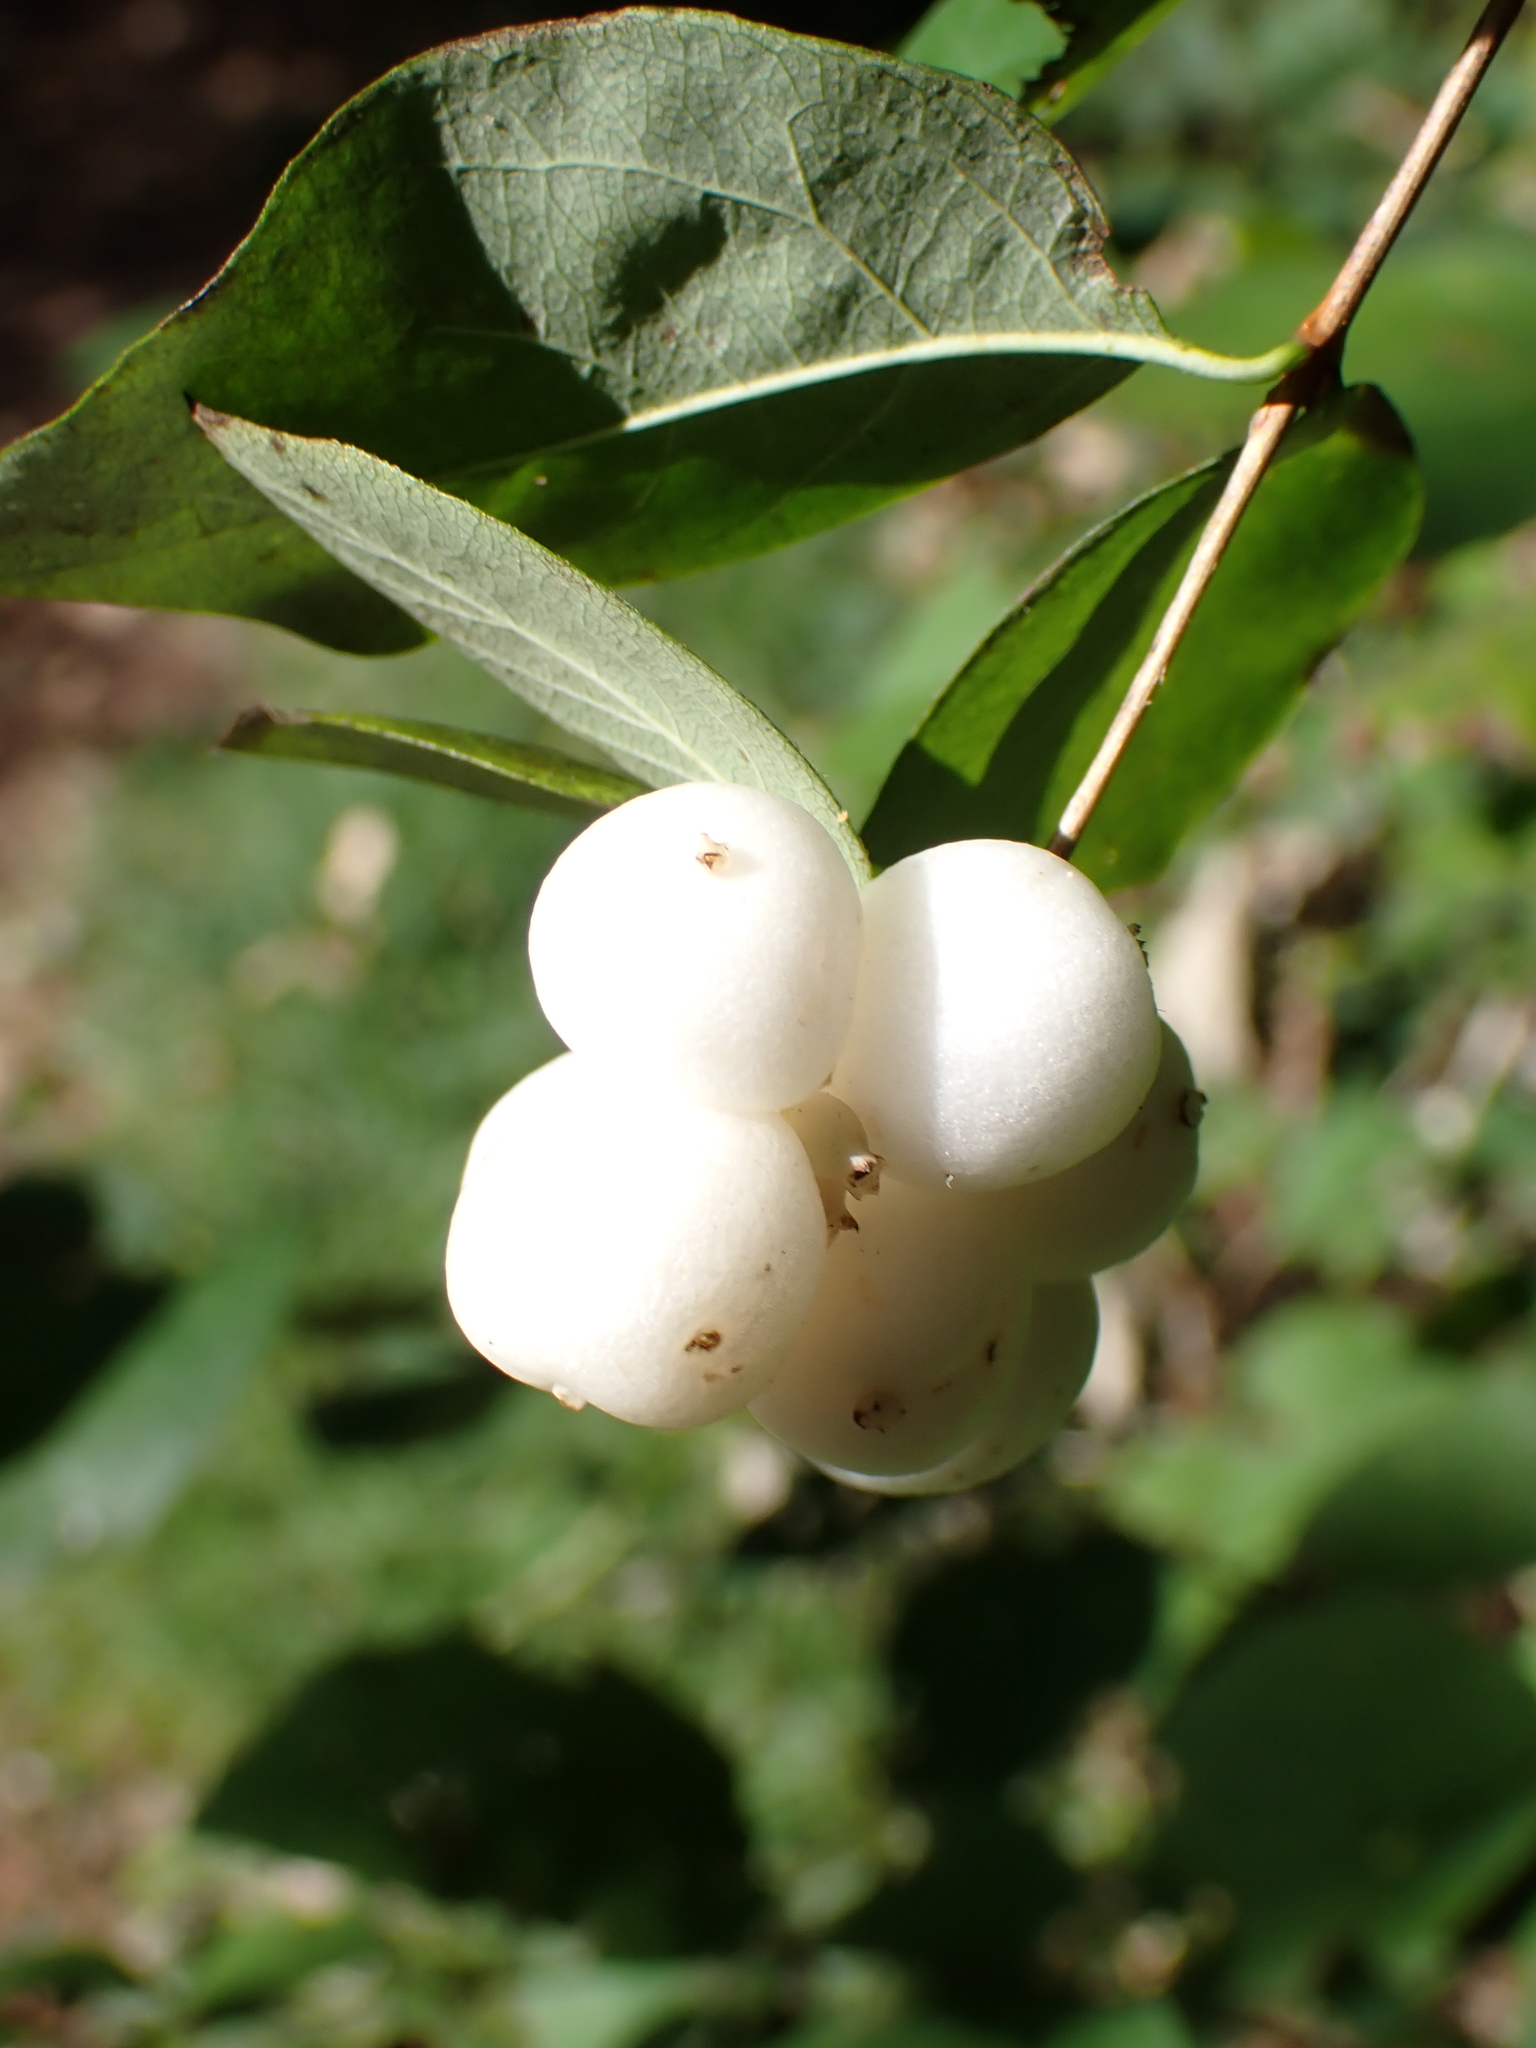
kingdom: Plantae
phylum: Tracheophyta
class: Magnoliopsida
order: Dipsacales
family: Caprifoliaceae
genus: Symphoricarpos
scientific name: Symphoricarpos albus
